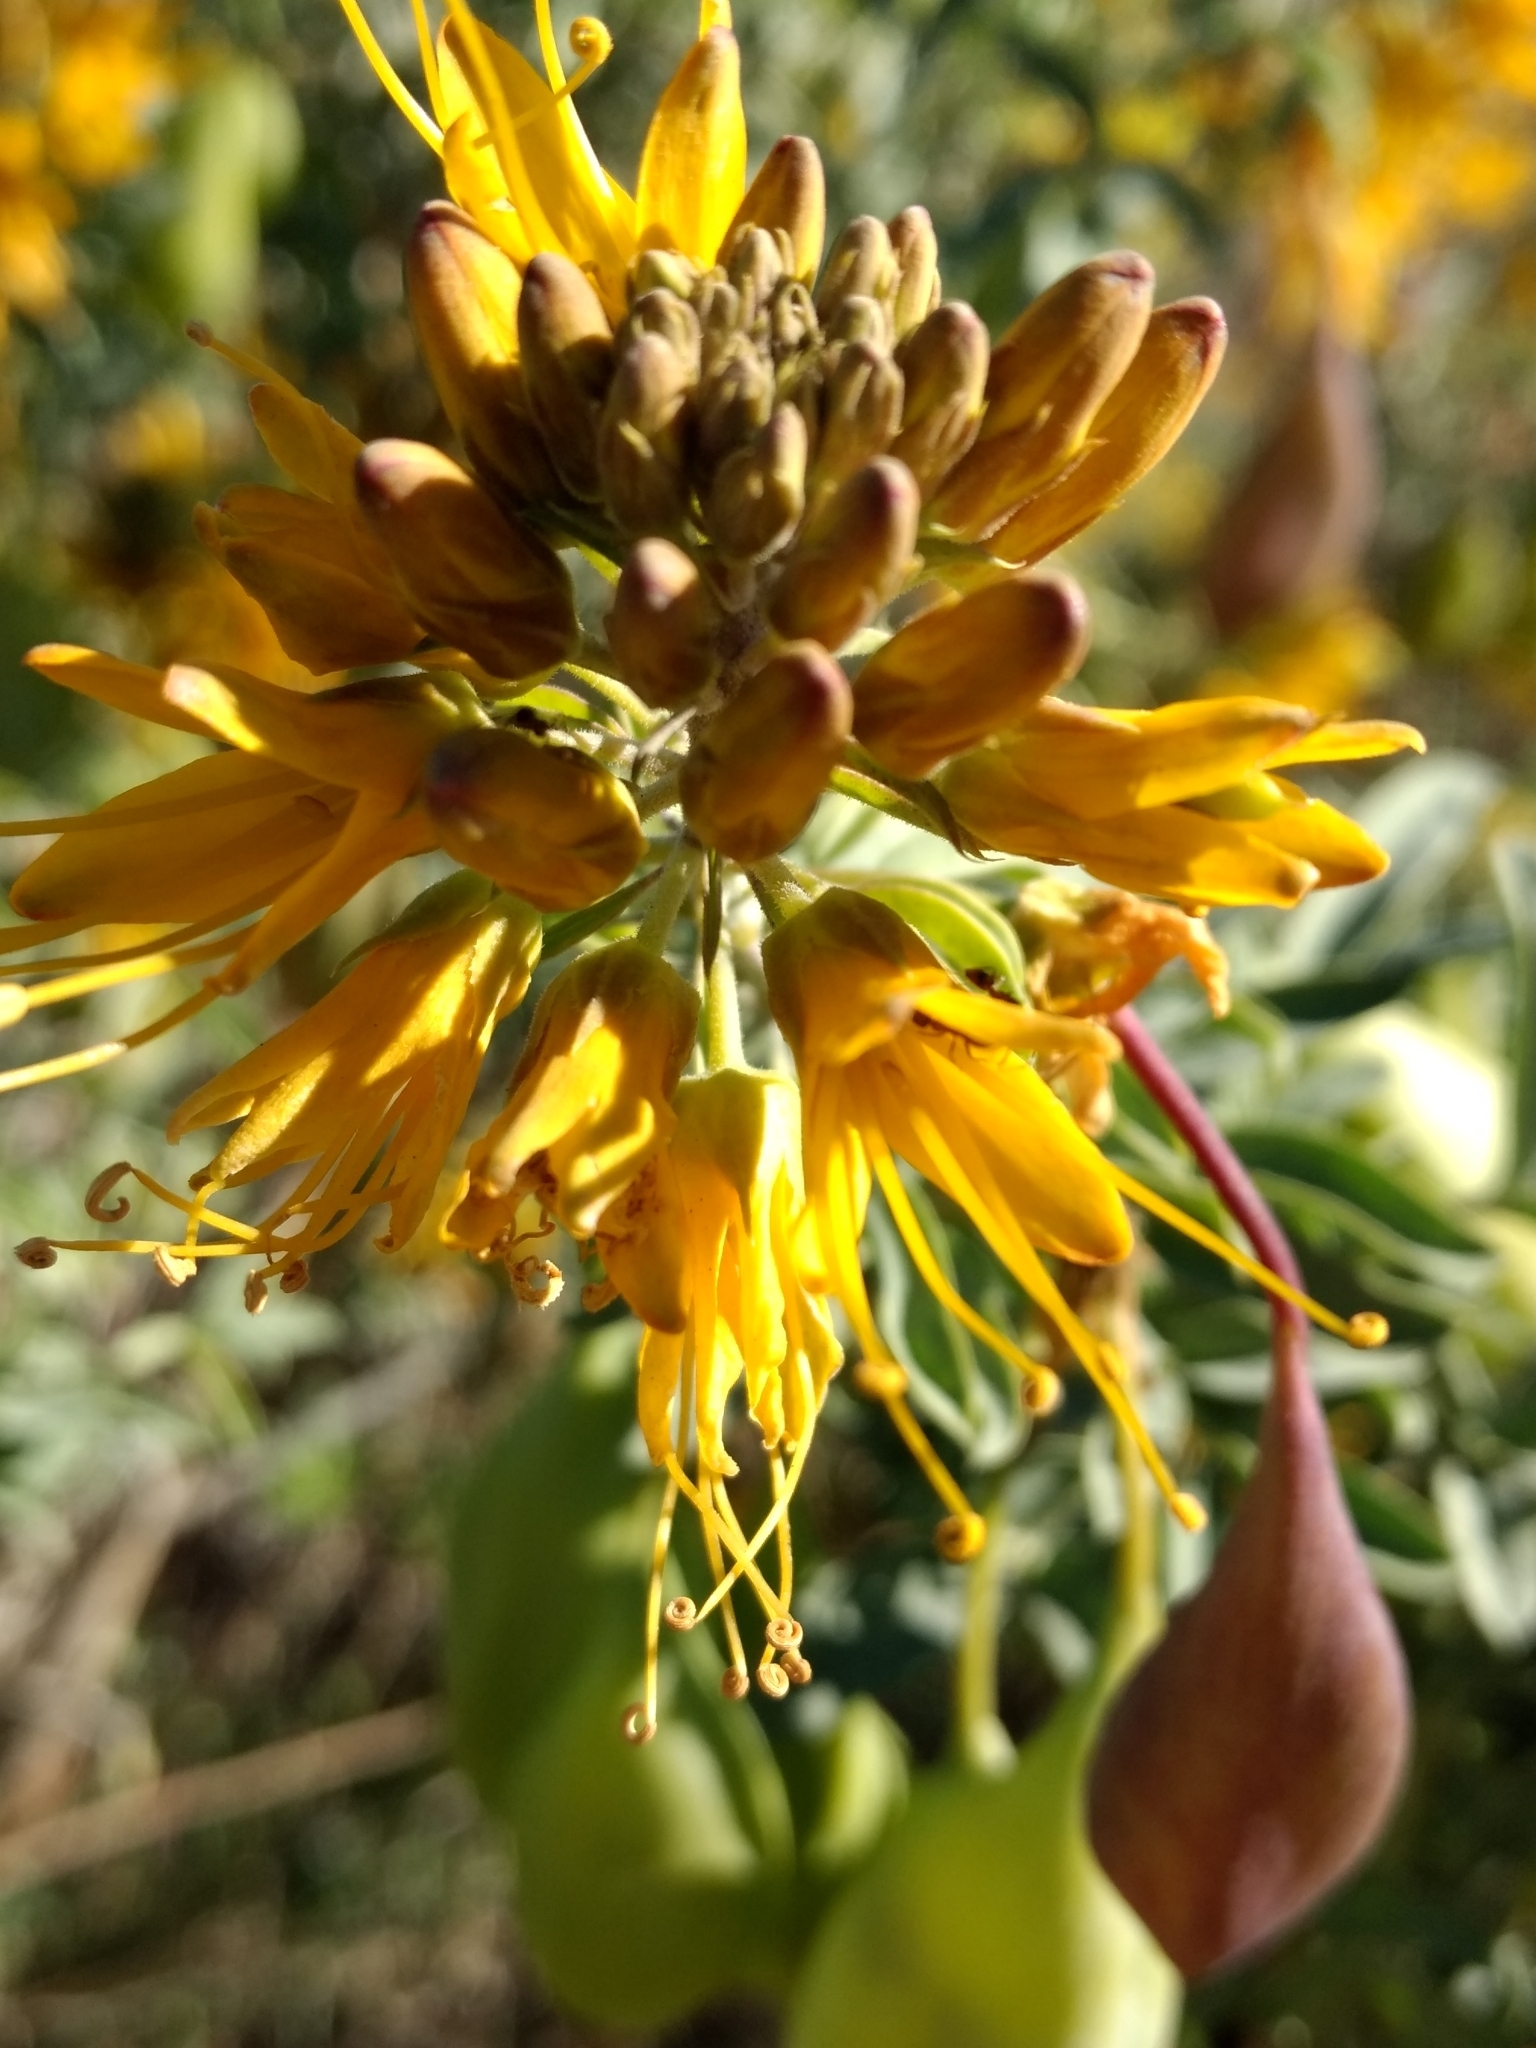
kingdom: Plantae
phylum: Tracheophyta
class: Magnoliopsida
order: Brassicales
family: Cleomaceae
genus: Cleomella
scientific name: Cleomella arborea
